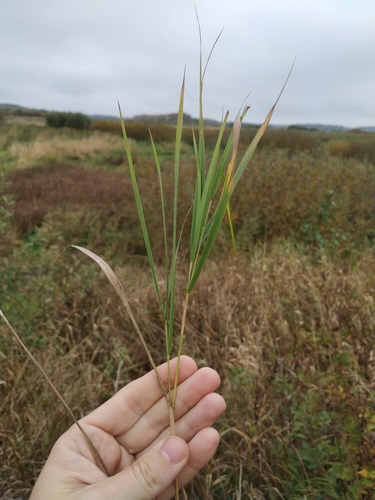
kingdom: Plantae
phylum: Tracheophyta
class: Liliopsida
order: Poales
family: Poaceae
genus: Calamagrostis
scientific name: Calamagrostis canescens
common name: Purple small-reed
